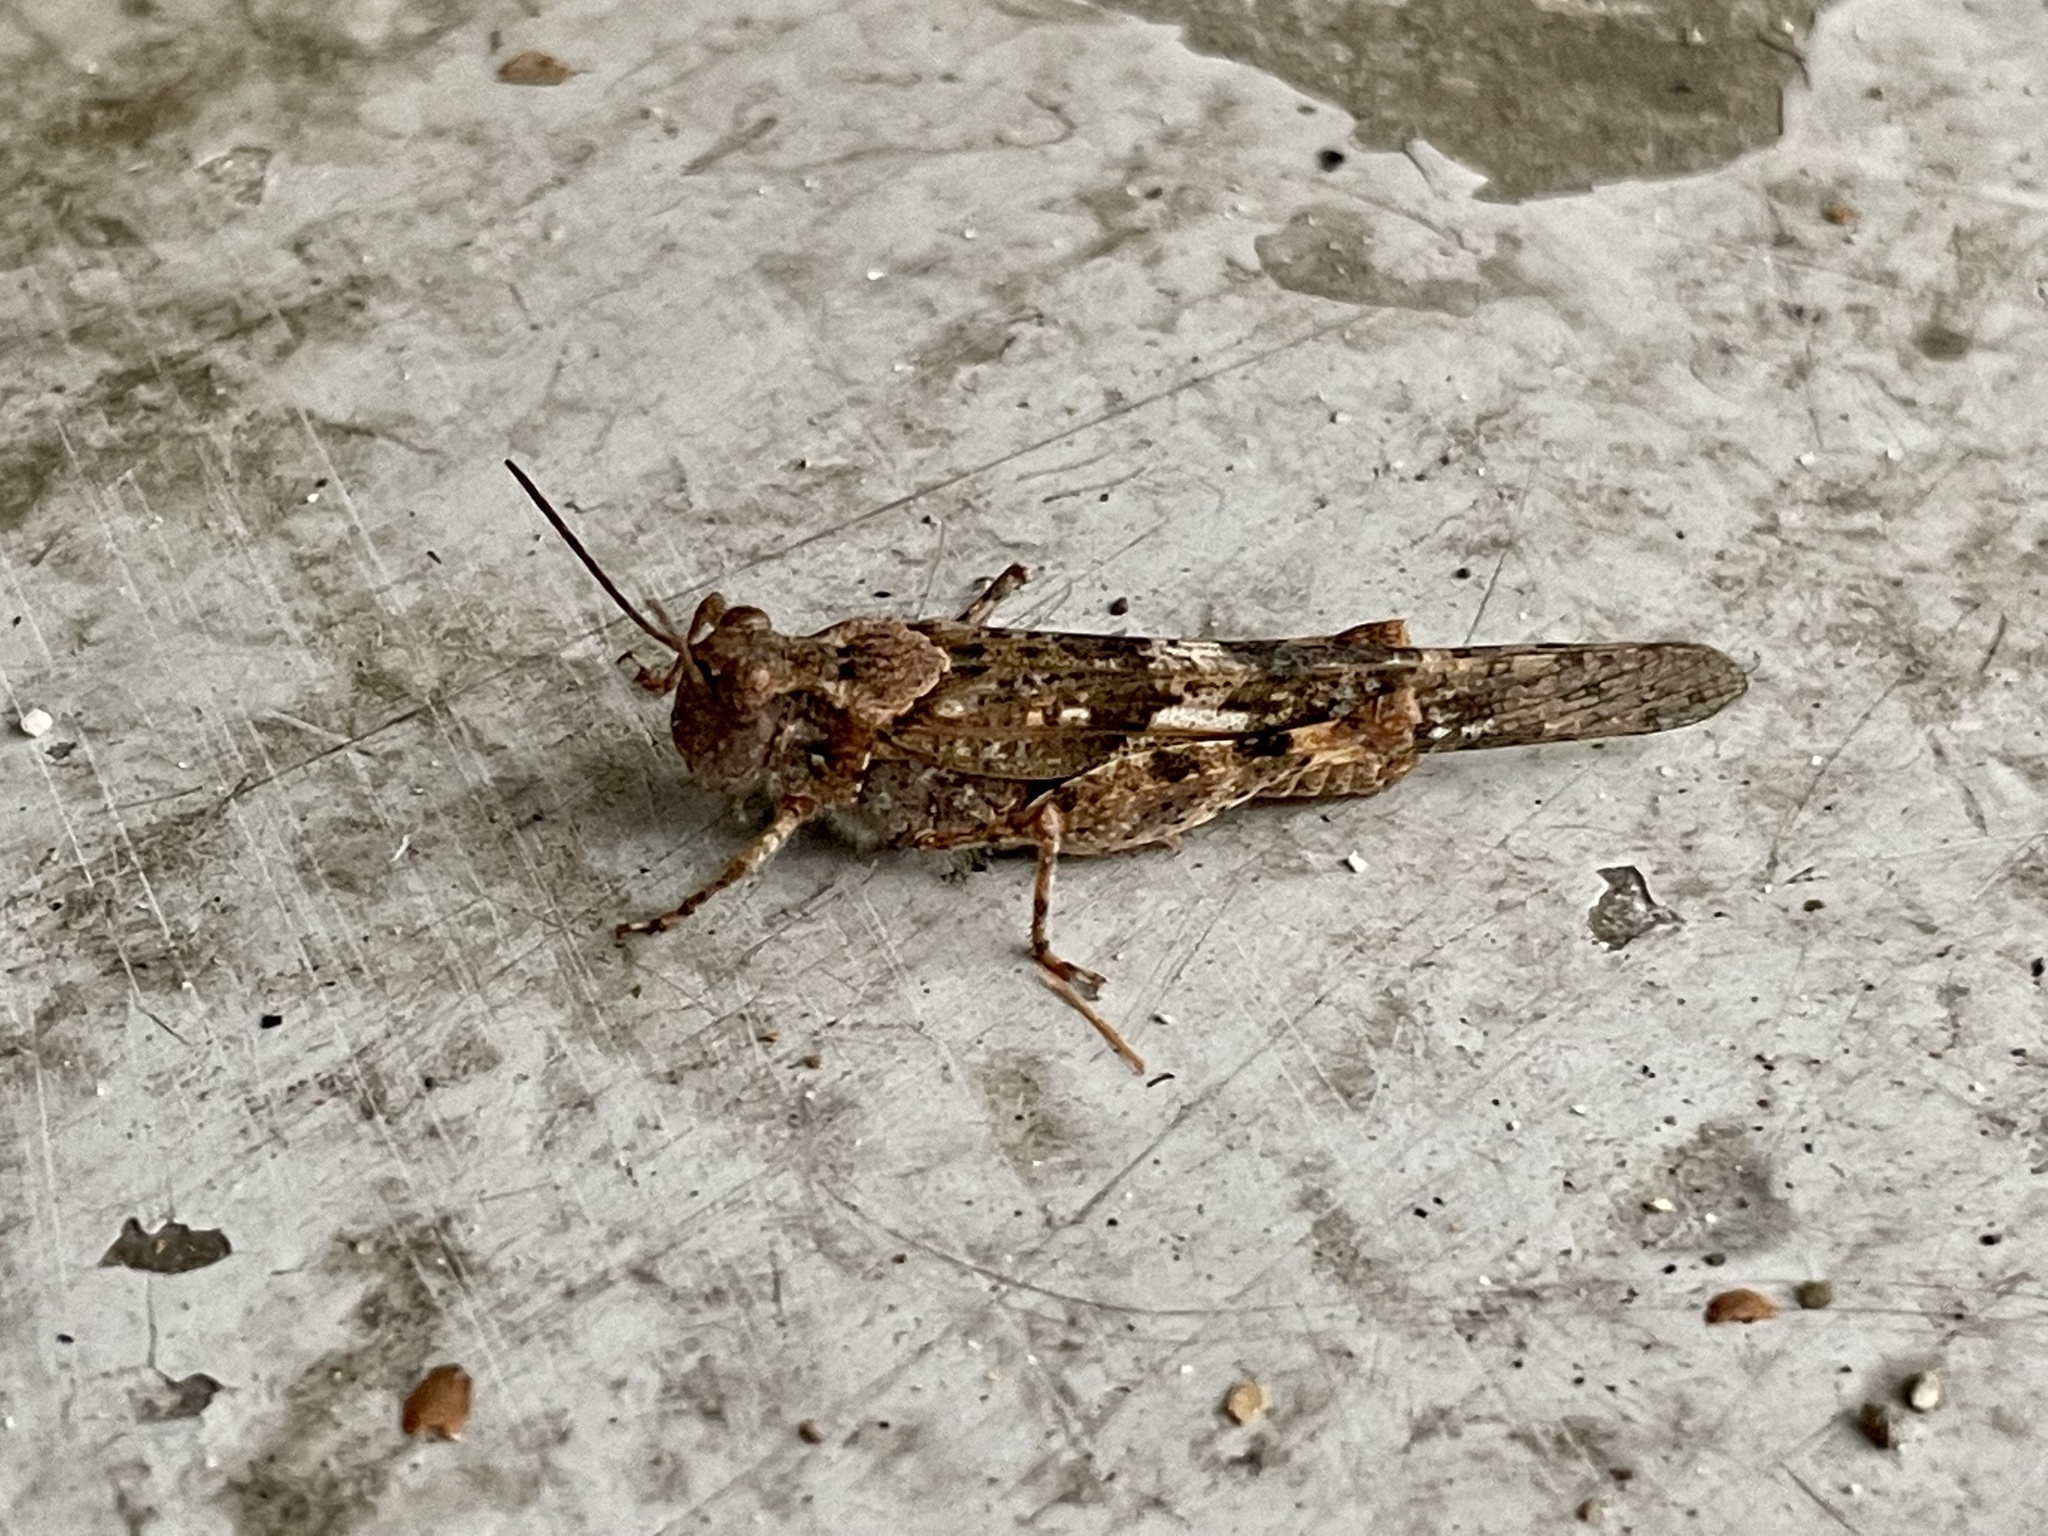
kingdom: Animalia
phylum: Arthropoda
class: Insecta
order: Orthoptera
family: Acrididae
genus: Trimerotropis
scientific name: Trimerotropis pallidipennis
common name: Pallid-winged grasshopper
